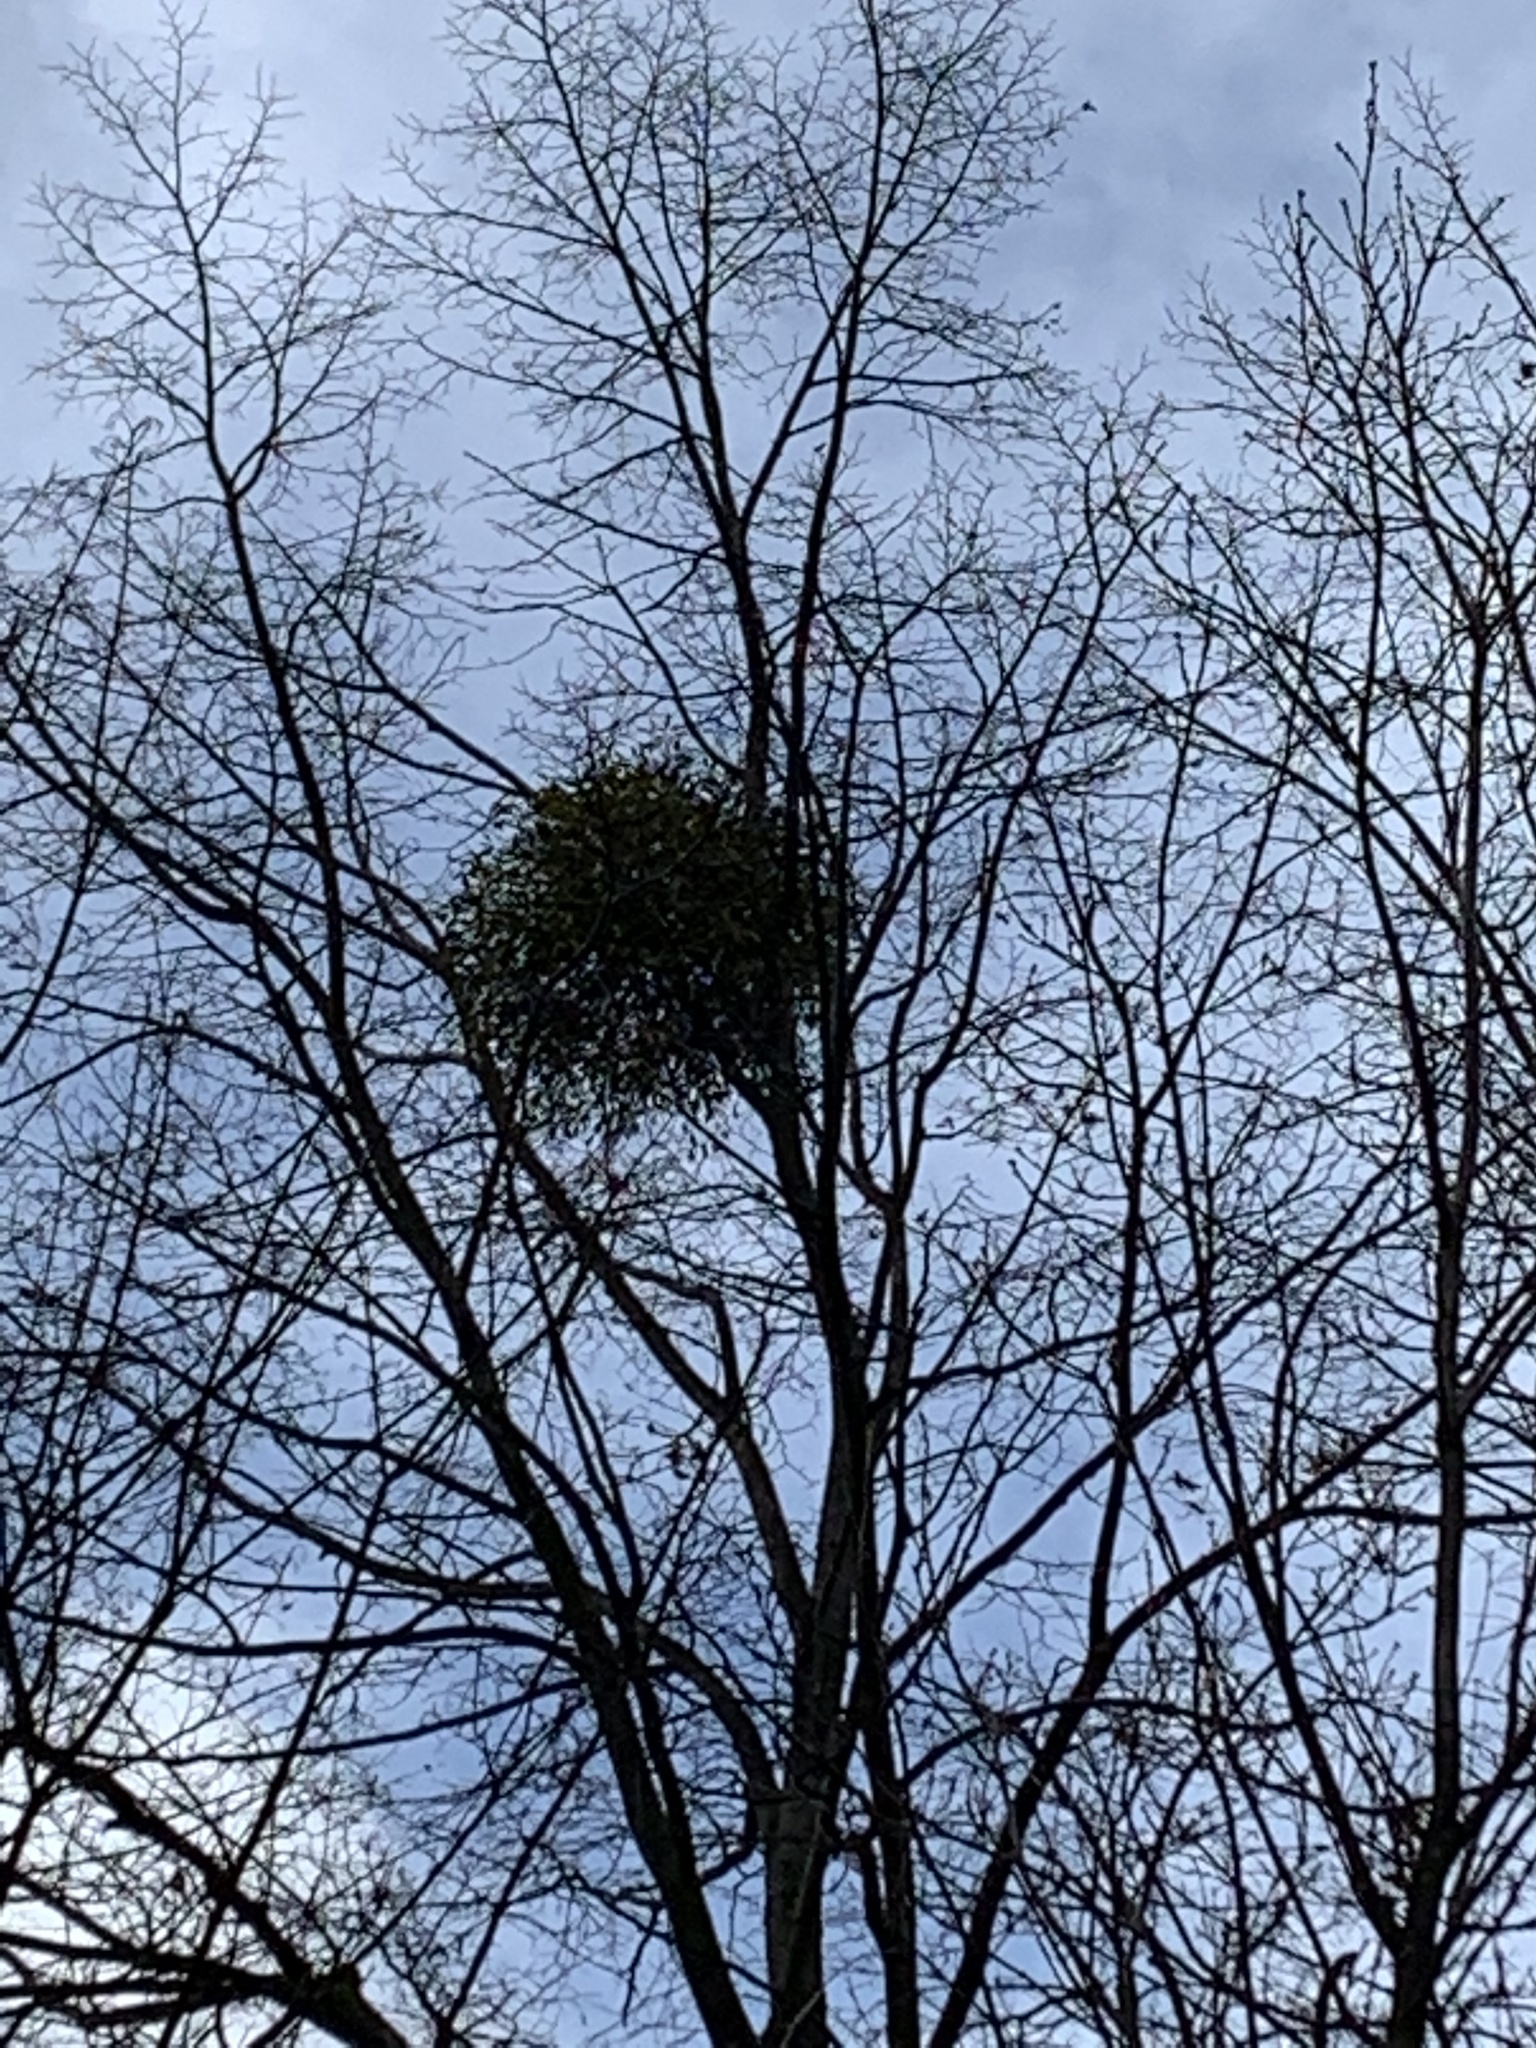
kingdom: Plantae
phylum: Tracheophyta
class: Magnoliopsida
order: Santalales
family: Viscaceae
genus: Viscum
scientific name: Viscum album
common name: Mistletoe
